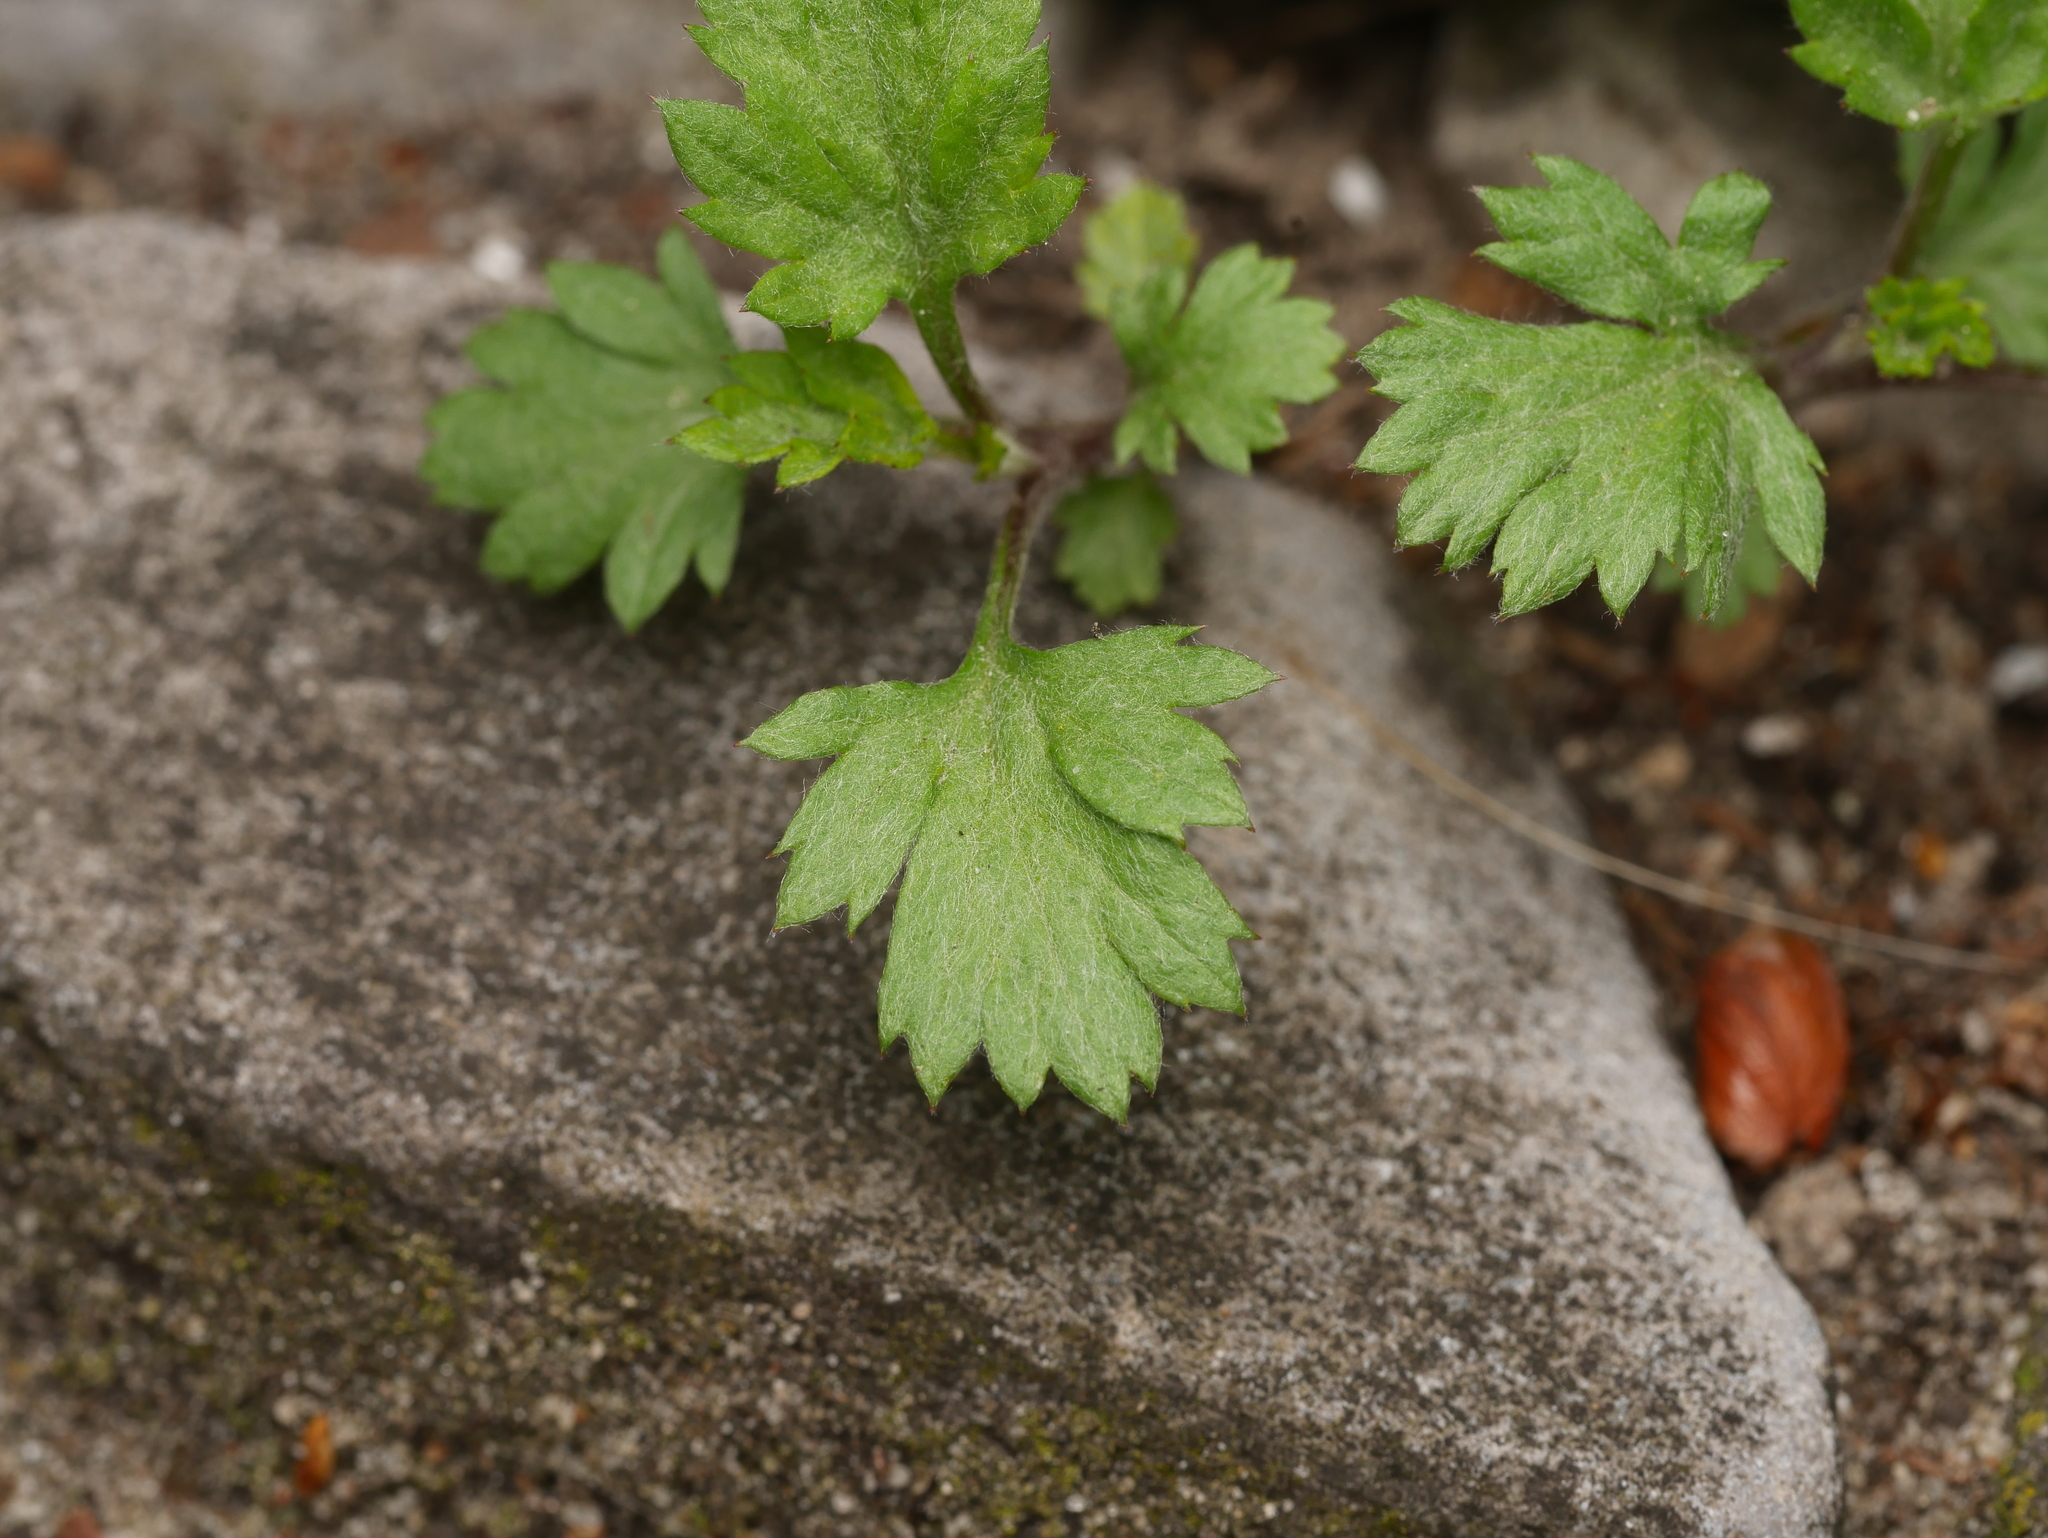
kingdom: Plantae
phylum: Tracheophyta
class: Magnoliopsida
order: Asterales
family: Asteraceae
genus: Artemisia
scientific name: Artemisia vulgaris
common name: Mugwort
